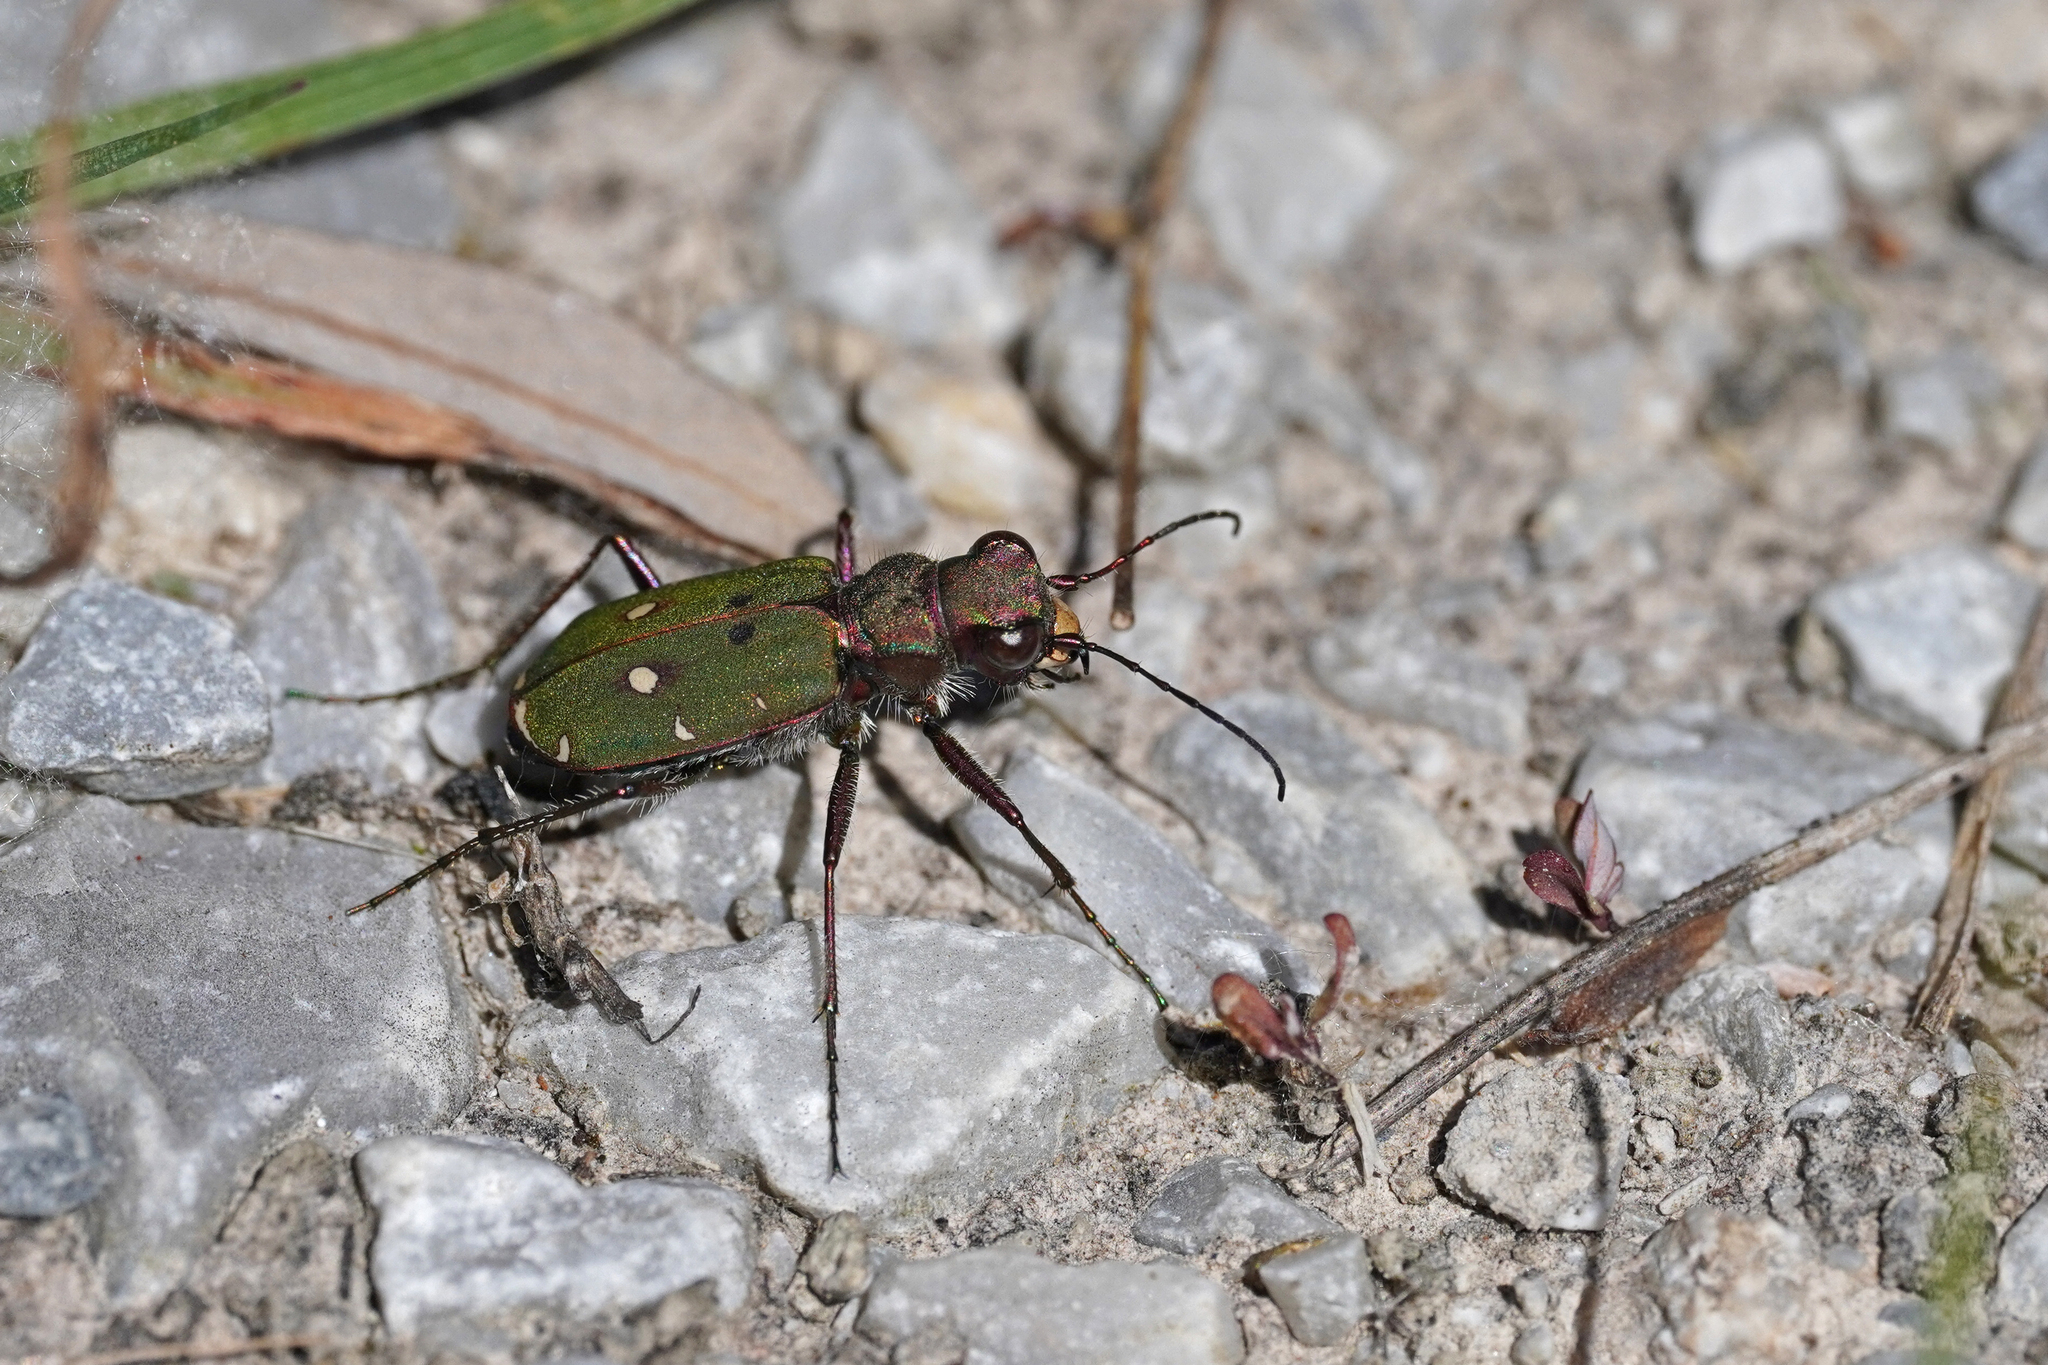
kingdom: Animalia
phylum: Arthropoda
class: Insecta
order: Coleoptera
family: Carabidae
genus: Cicindela
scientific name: Cicindela campestris
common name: Common tiger beetle
